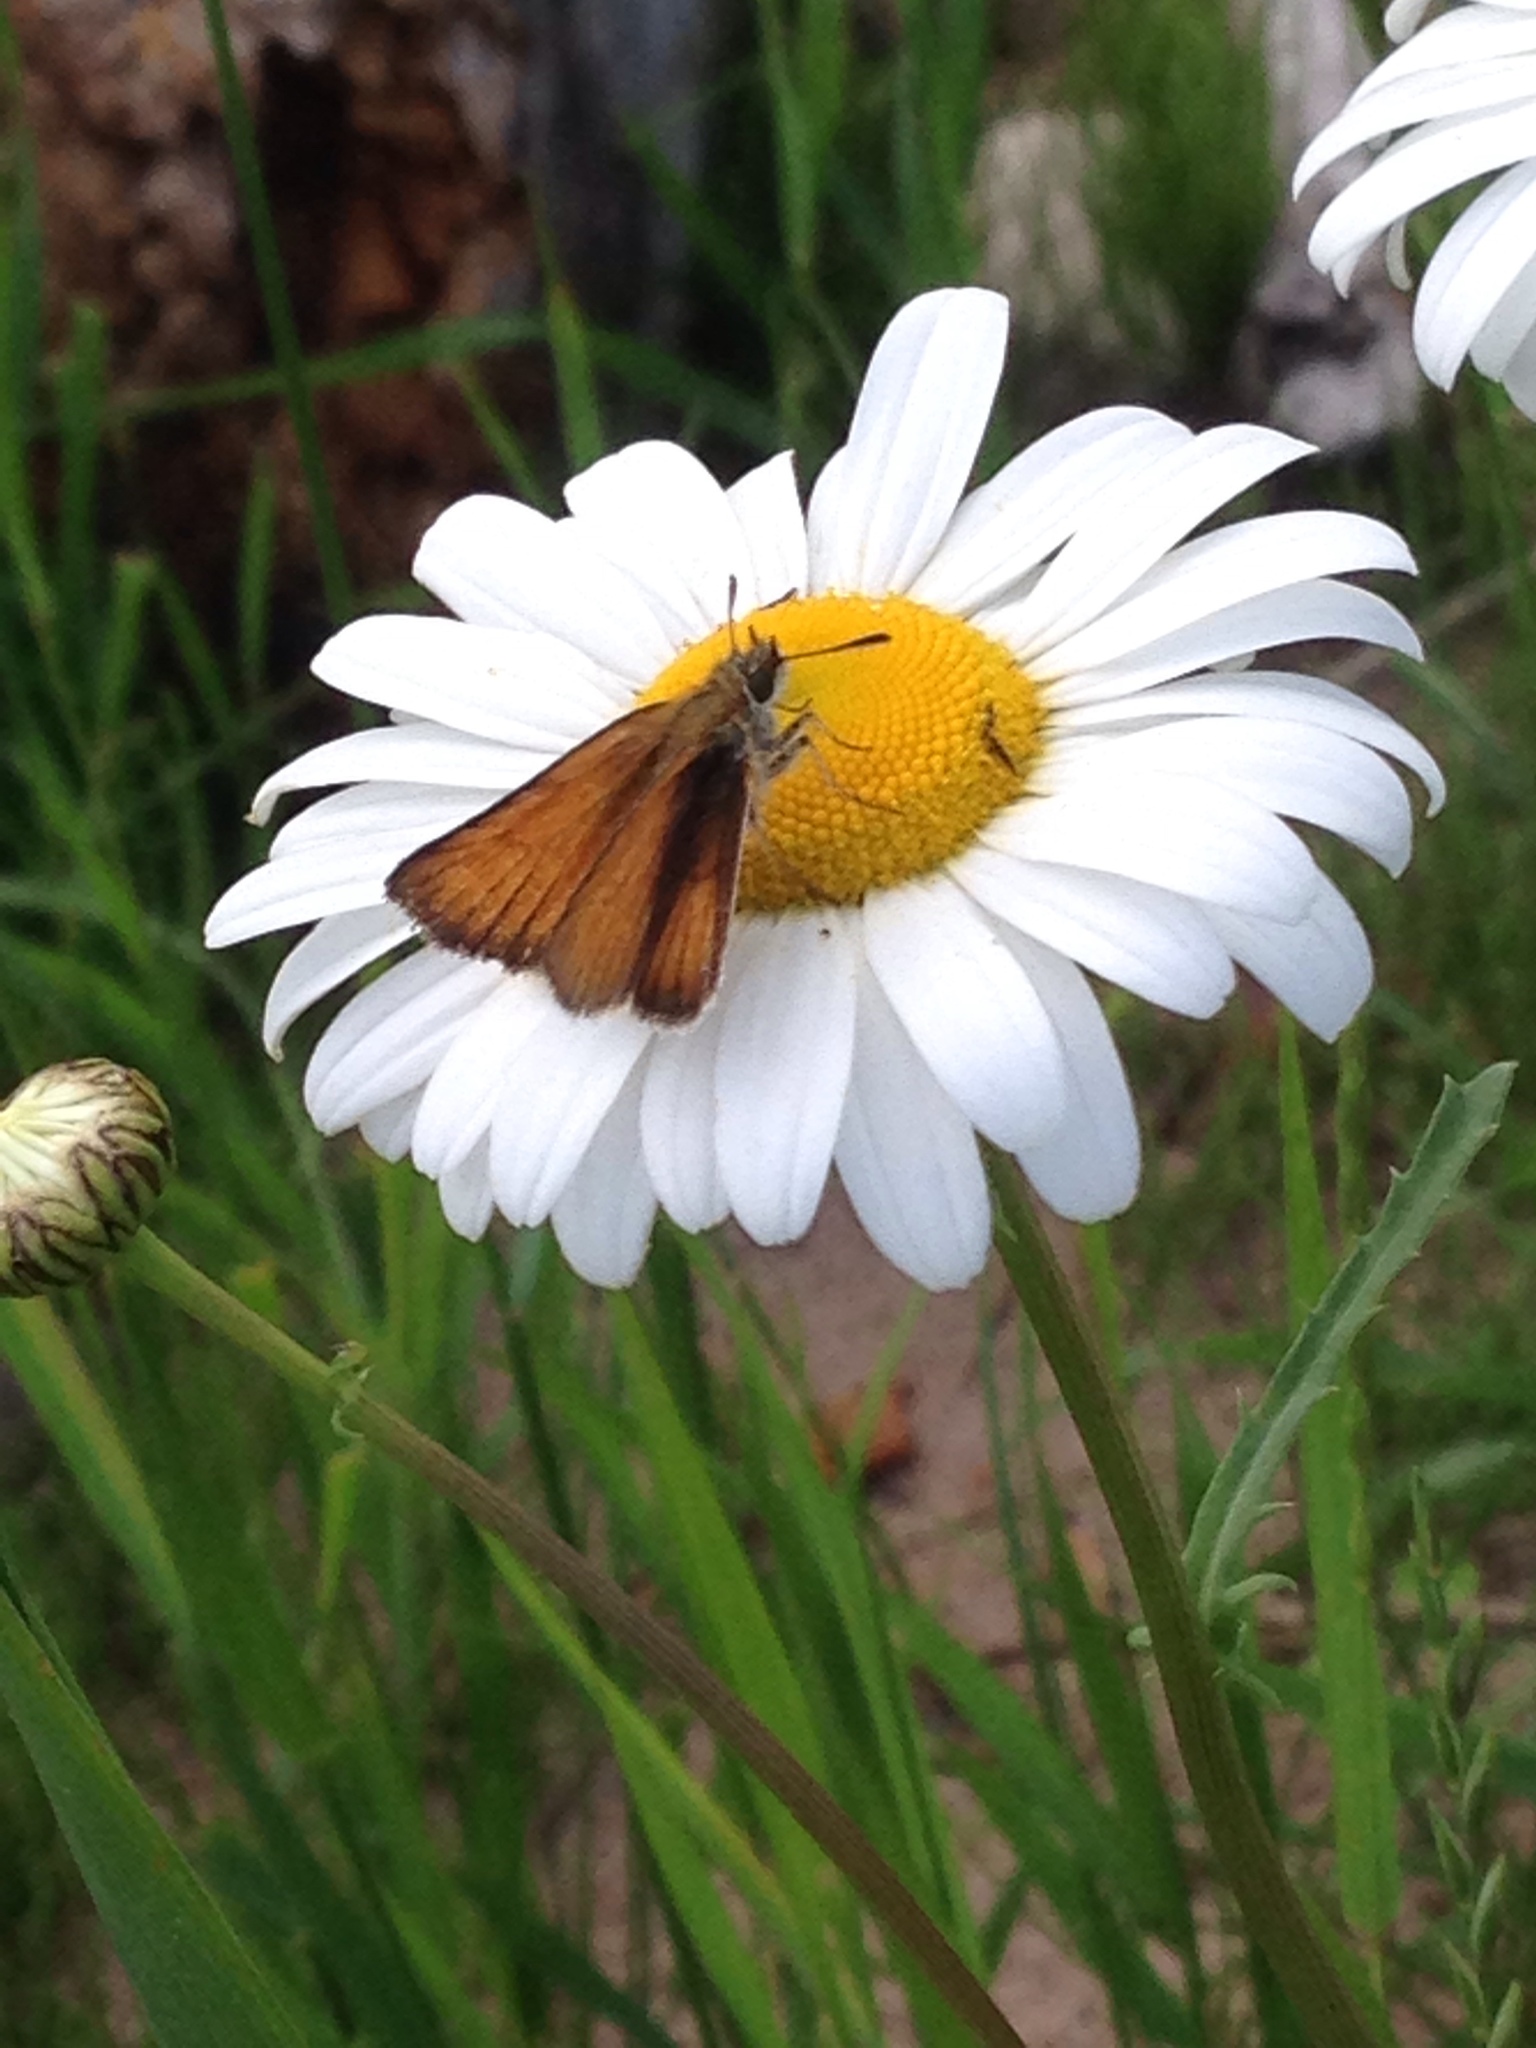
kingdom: Animalia
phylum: Arthropoda
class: Insecta
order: Lepidoptera
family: Hesperiidae
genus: Thymelicus
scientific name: Thymelicus lineola
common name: Essex skipper
